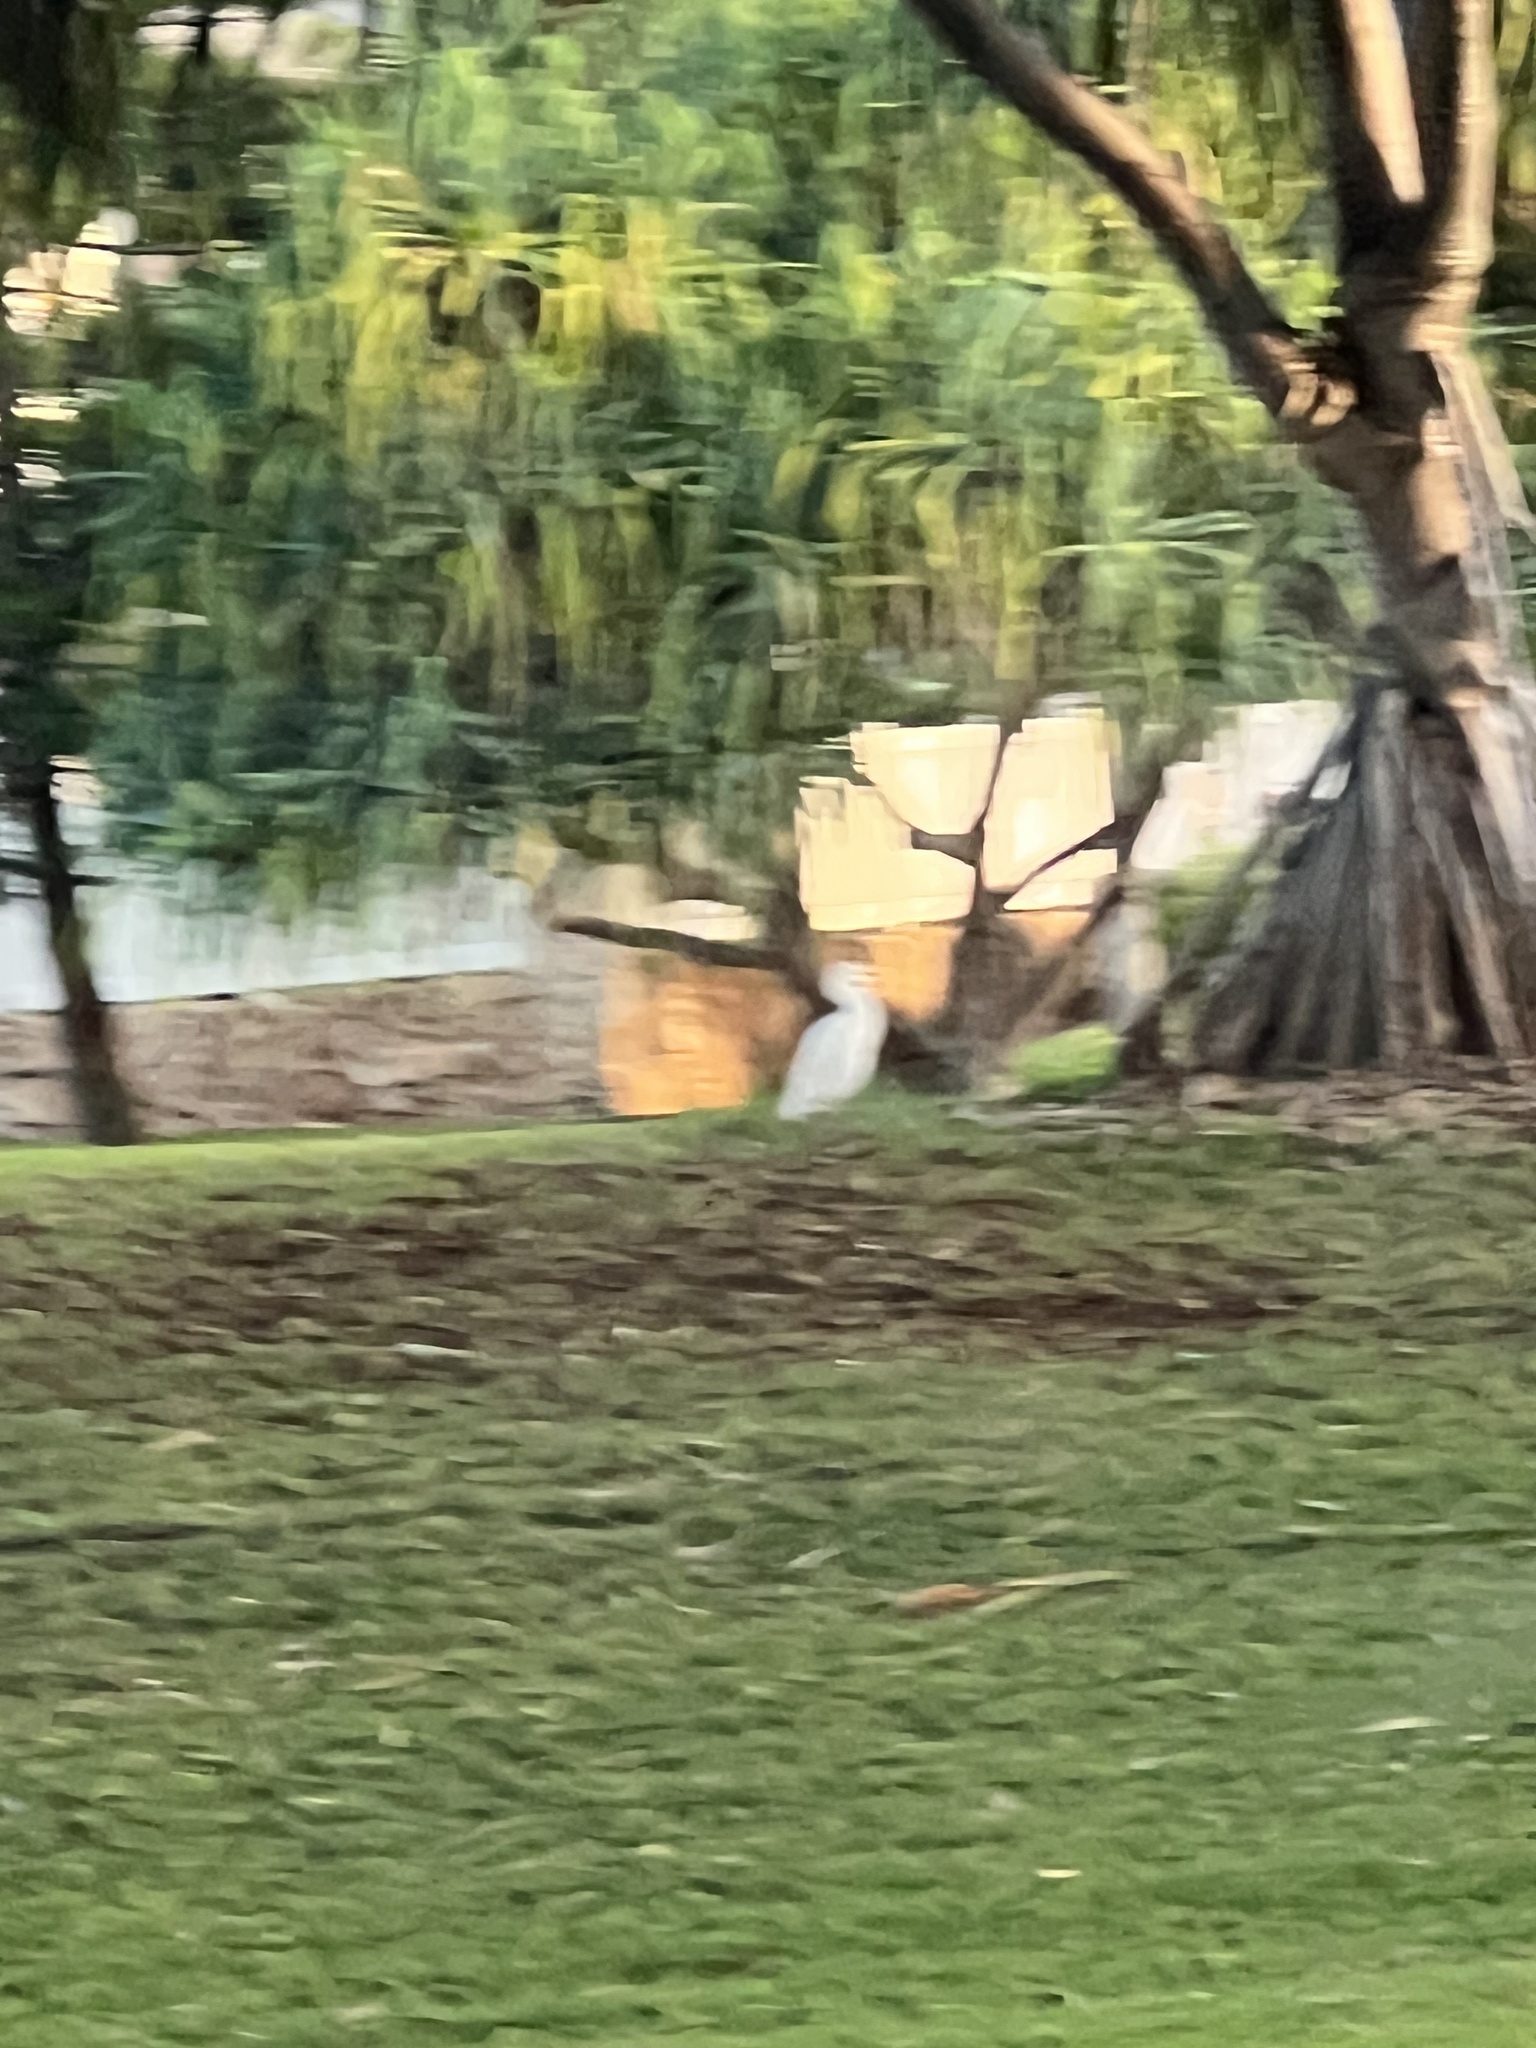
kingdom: Animalia
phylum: Chordata
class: Aves
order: Pelecaniformes
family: Ardeidae
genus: Bubulcus
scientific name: Bubulcus ibis
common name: Cattle egret
